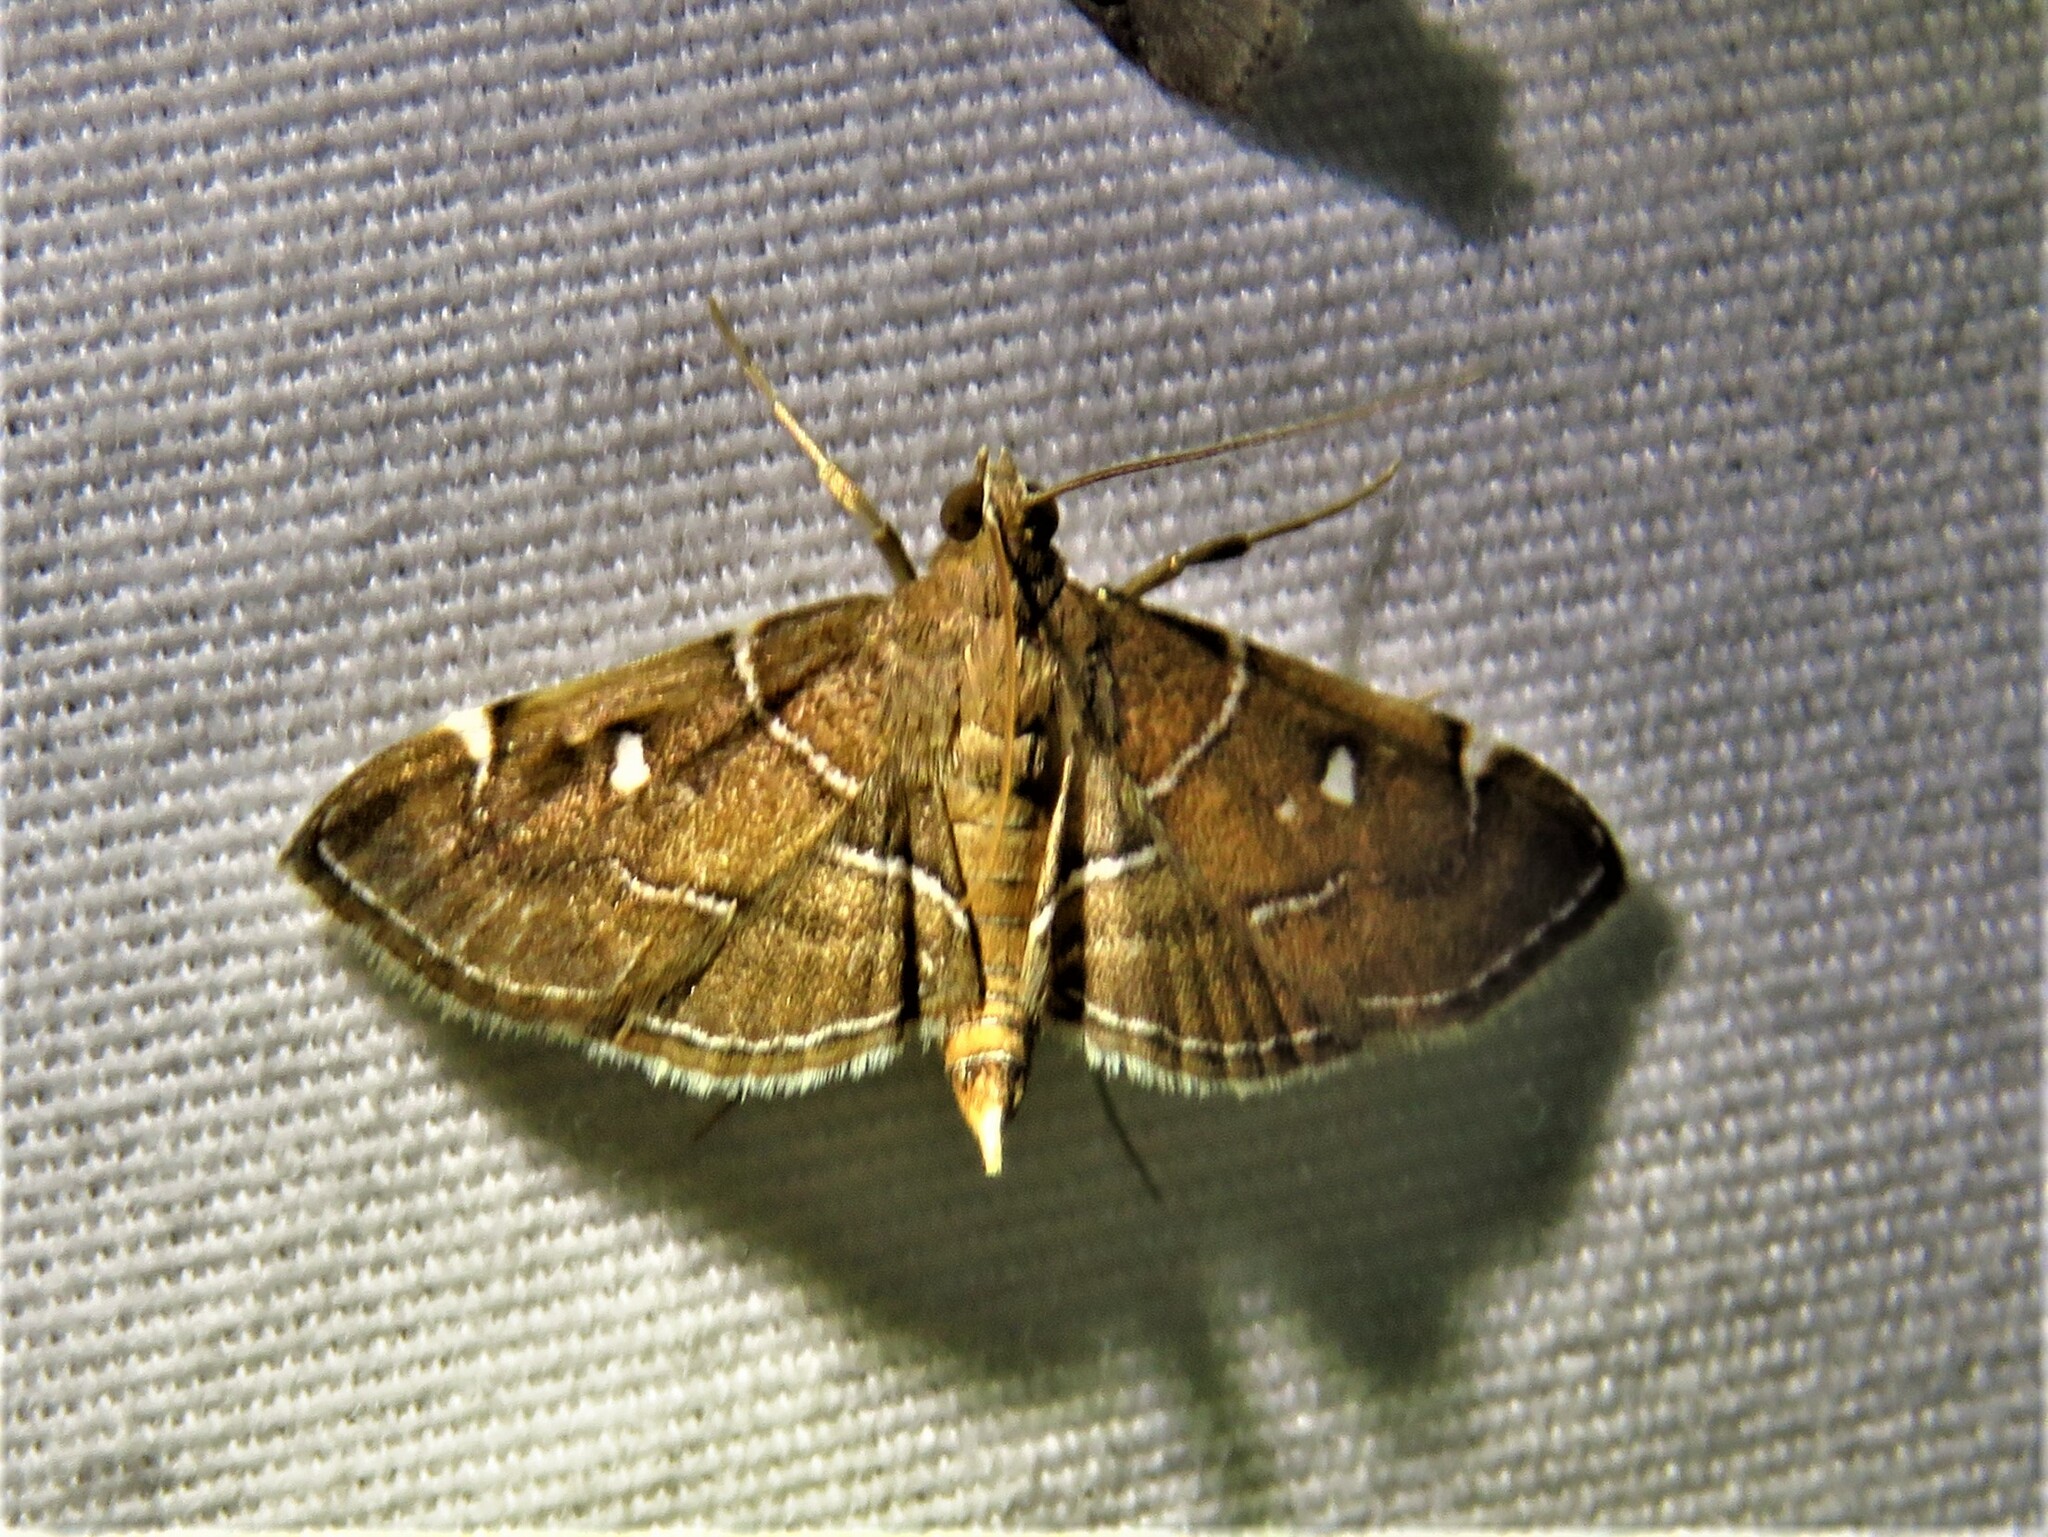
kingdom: Animalia
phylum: Arthropoda
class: Insecta
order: Lepidoptera
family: Crambidae
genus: Lamprosema
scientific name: Lamprosema victoriae
